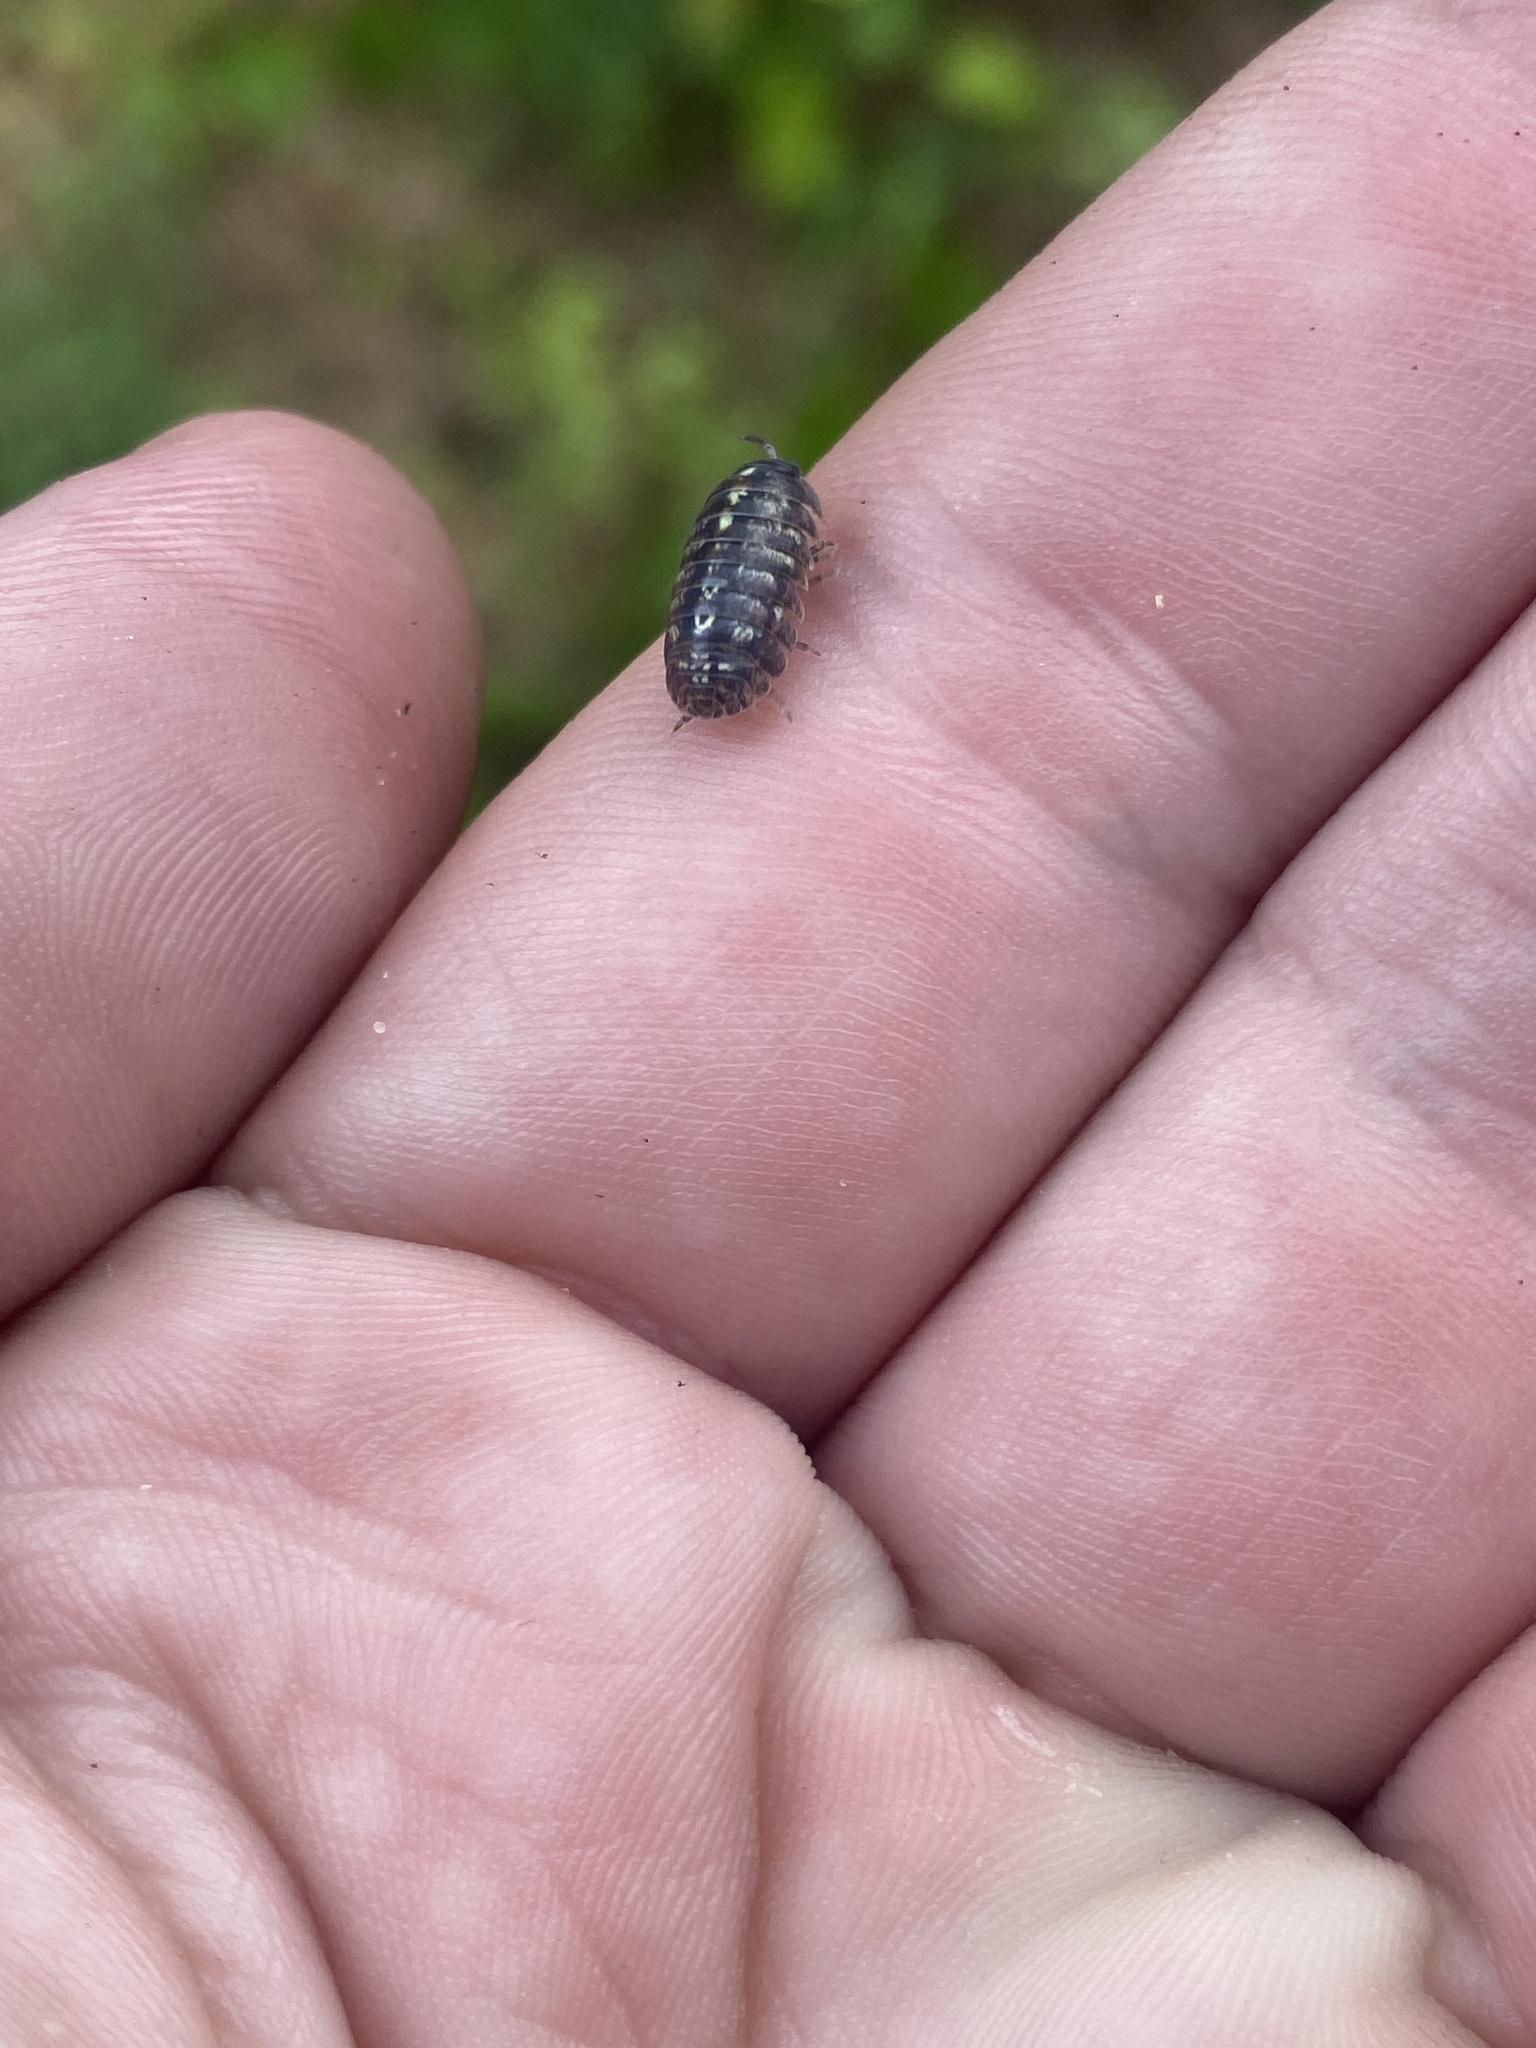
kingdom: Animalia
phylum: Arthropoda
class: Malacostraca
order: Isopoda
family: Armadillidiidae
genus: Armadillidium
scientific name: Armadillidium vulgare
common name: Common pill woodlouse
